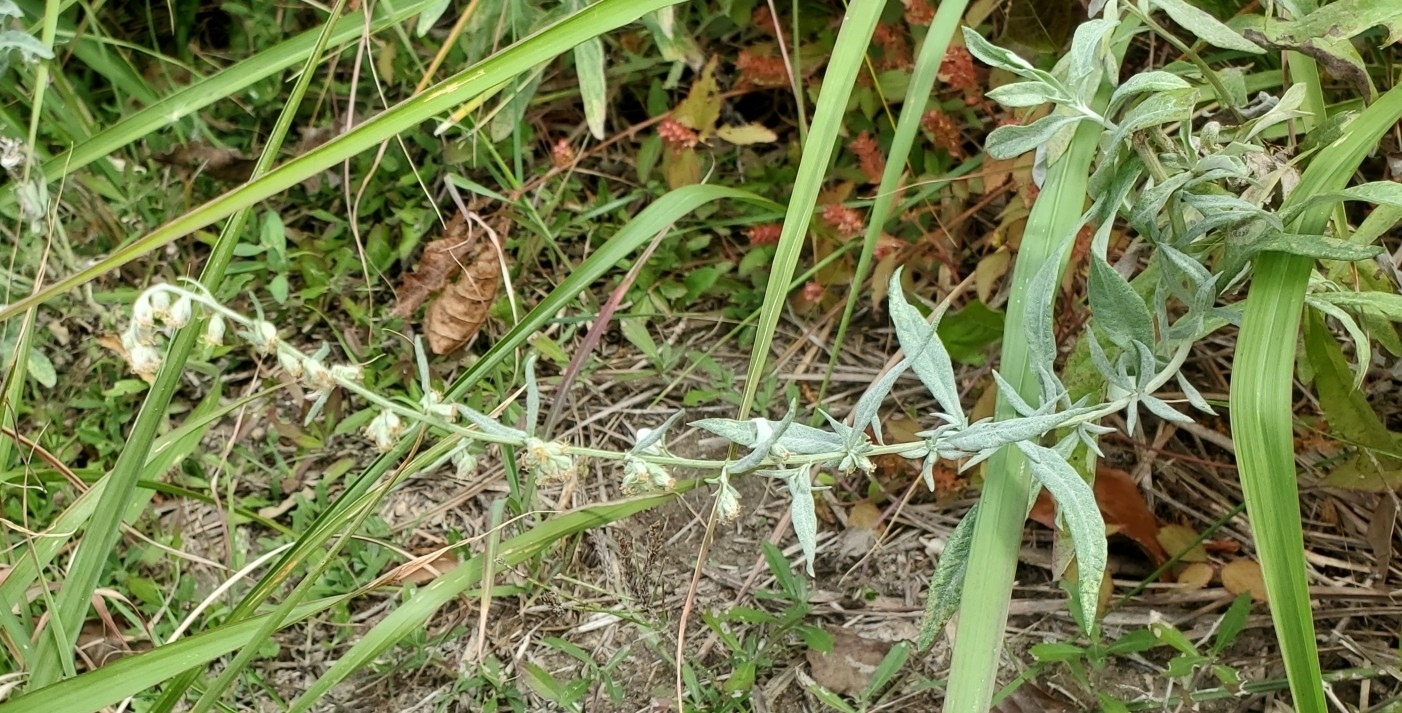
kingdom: Plantae
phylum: Tracheophyta
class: Magnoliopsida
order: Asterales
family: Asteraceae
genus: Artemisia
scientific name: Artemisia ludoviciana
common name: Western mugwort
